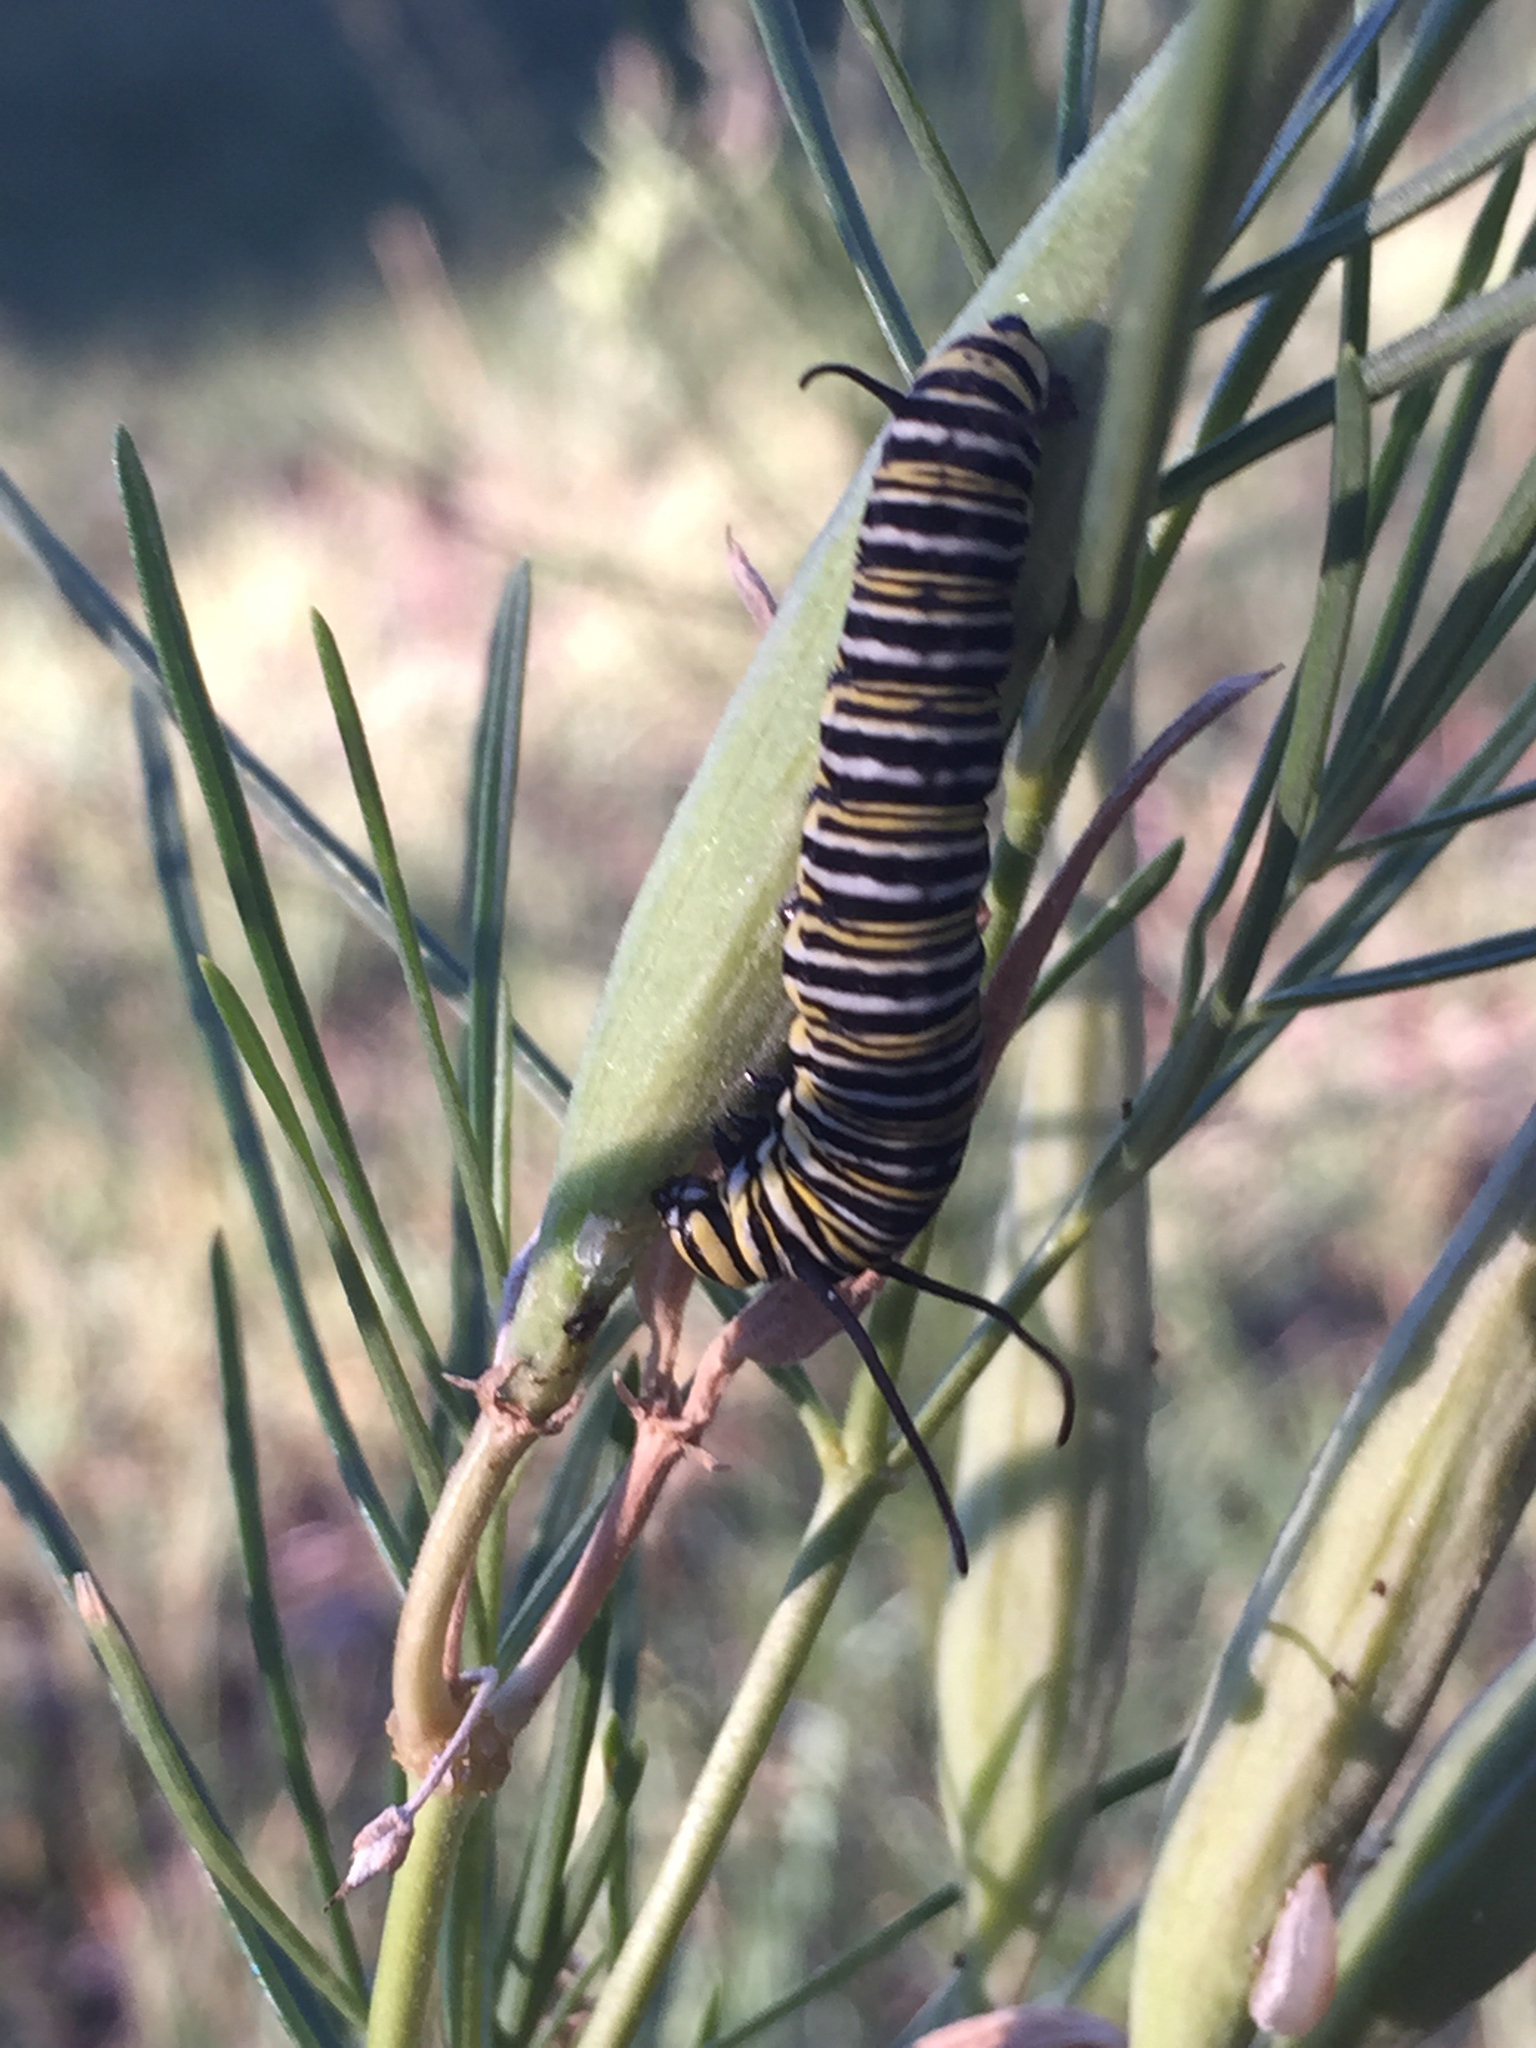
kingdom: Animalia
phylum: Arthropoda
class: Insecta
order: Lepidoptera
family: Nymphalidae
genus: Danaus
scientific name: Danaus plexippus
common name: Monarch
